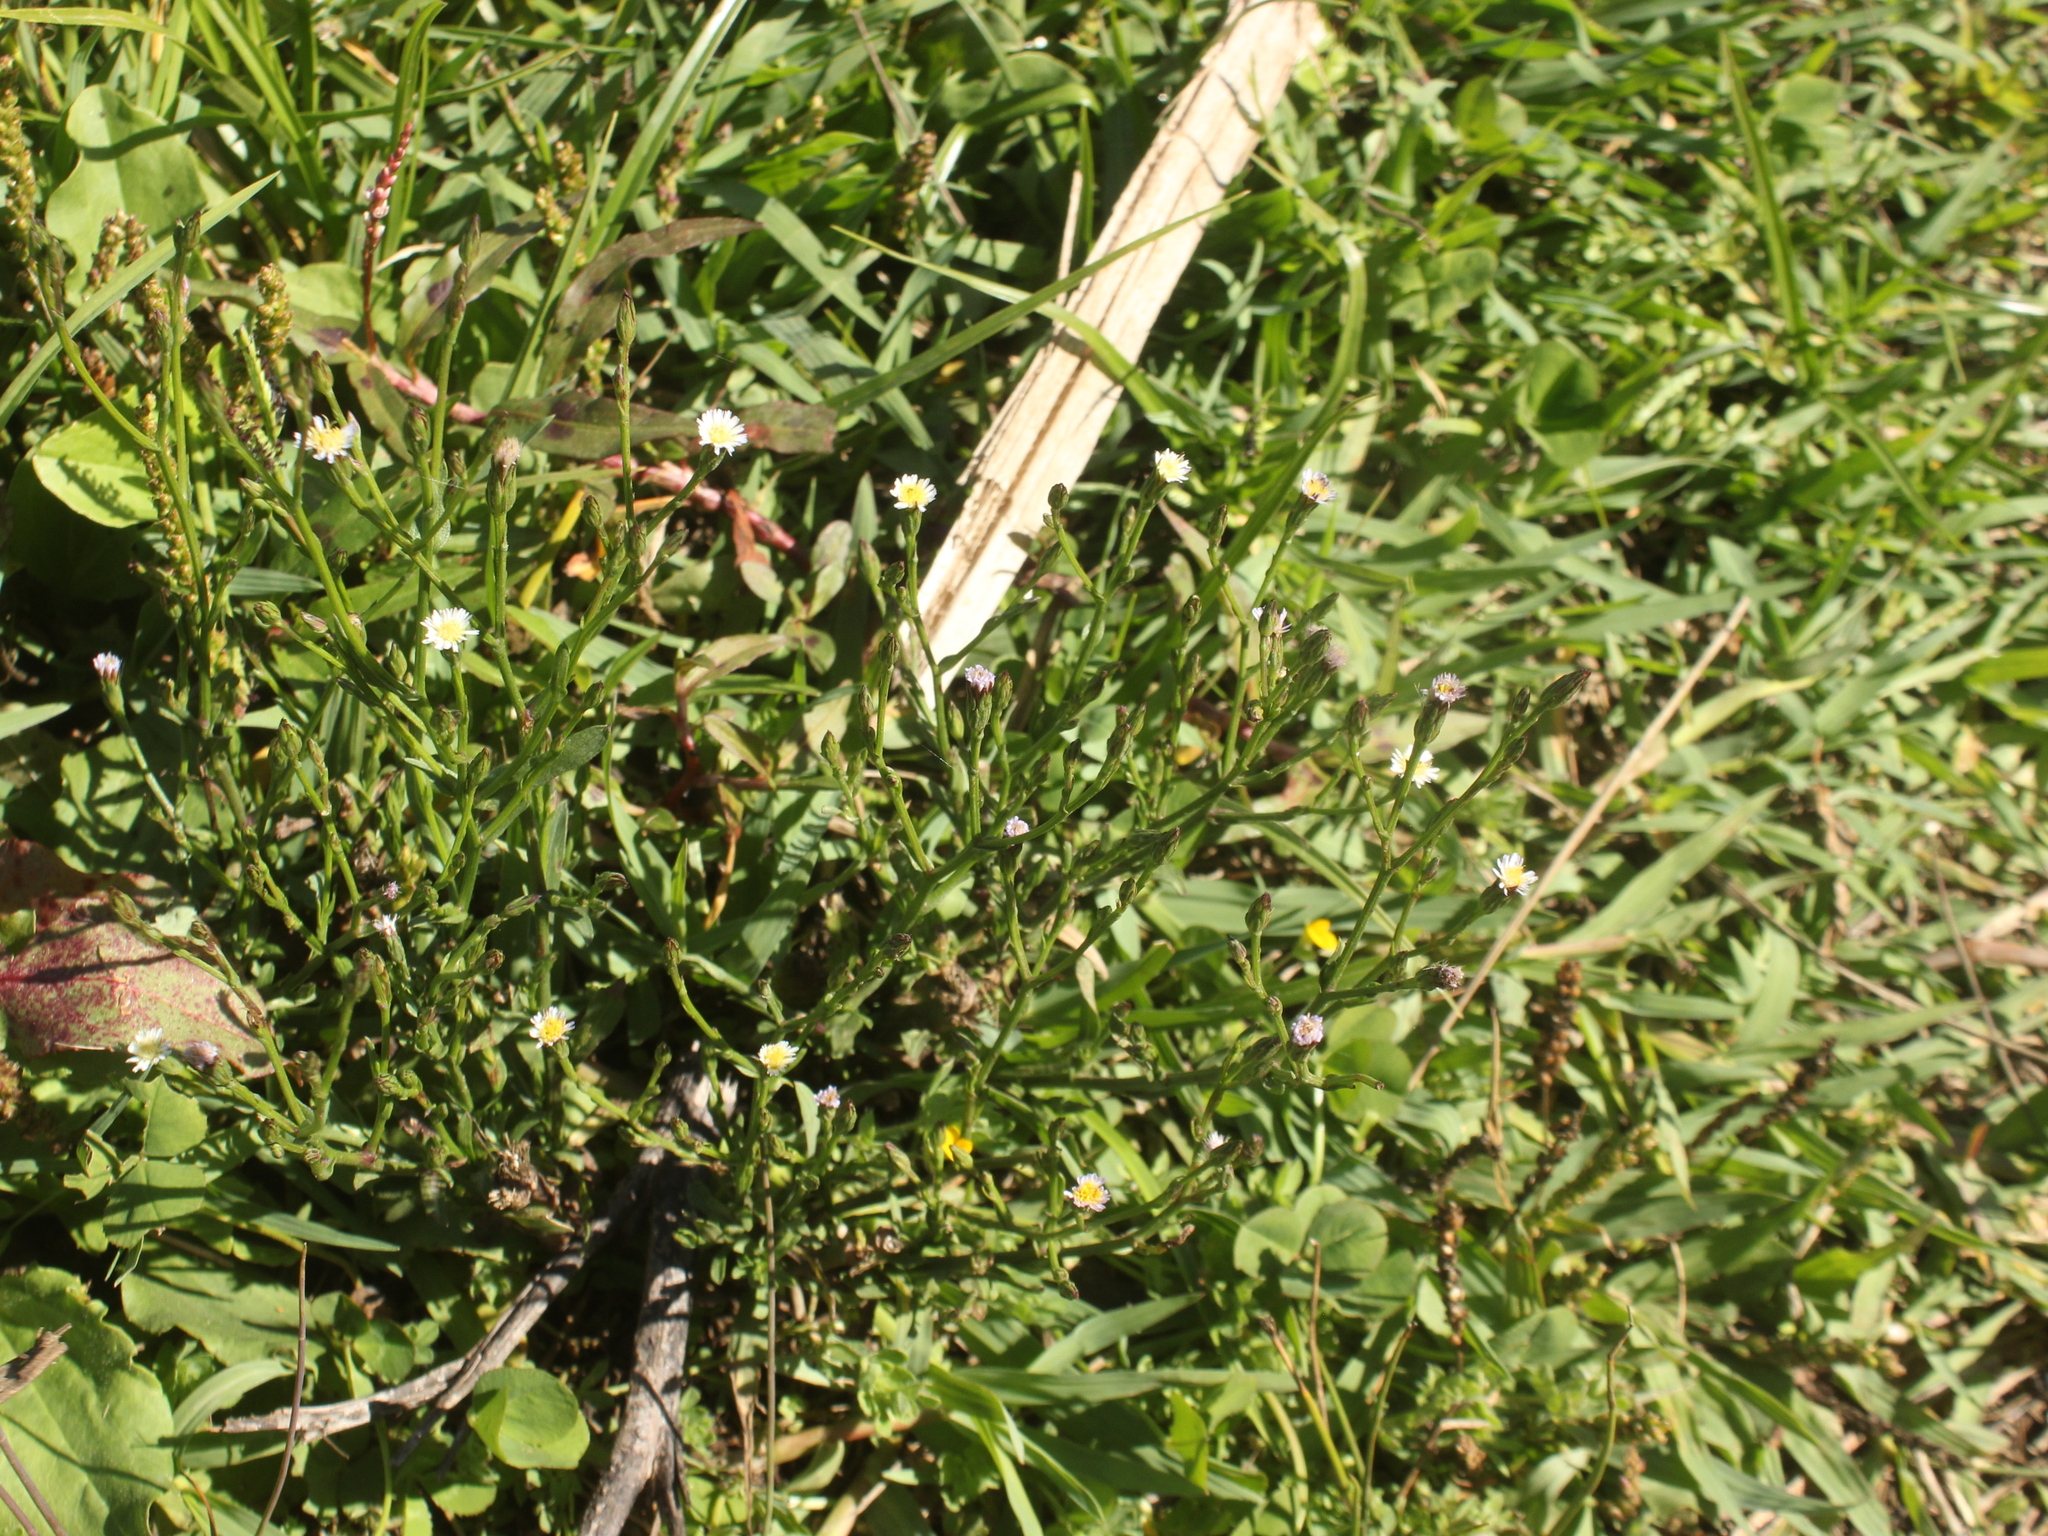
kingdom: Plantae
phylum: Tracheophyta
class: Magnoliopsida
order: Asterales
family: Asteraceae
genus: Symphyotrichum
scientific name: Symphyotrichum subulatum
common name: Annual saltmarsh aster
